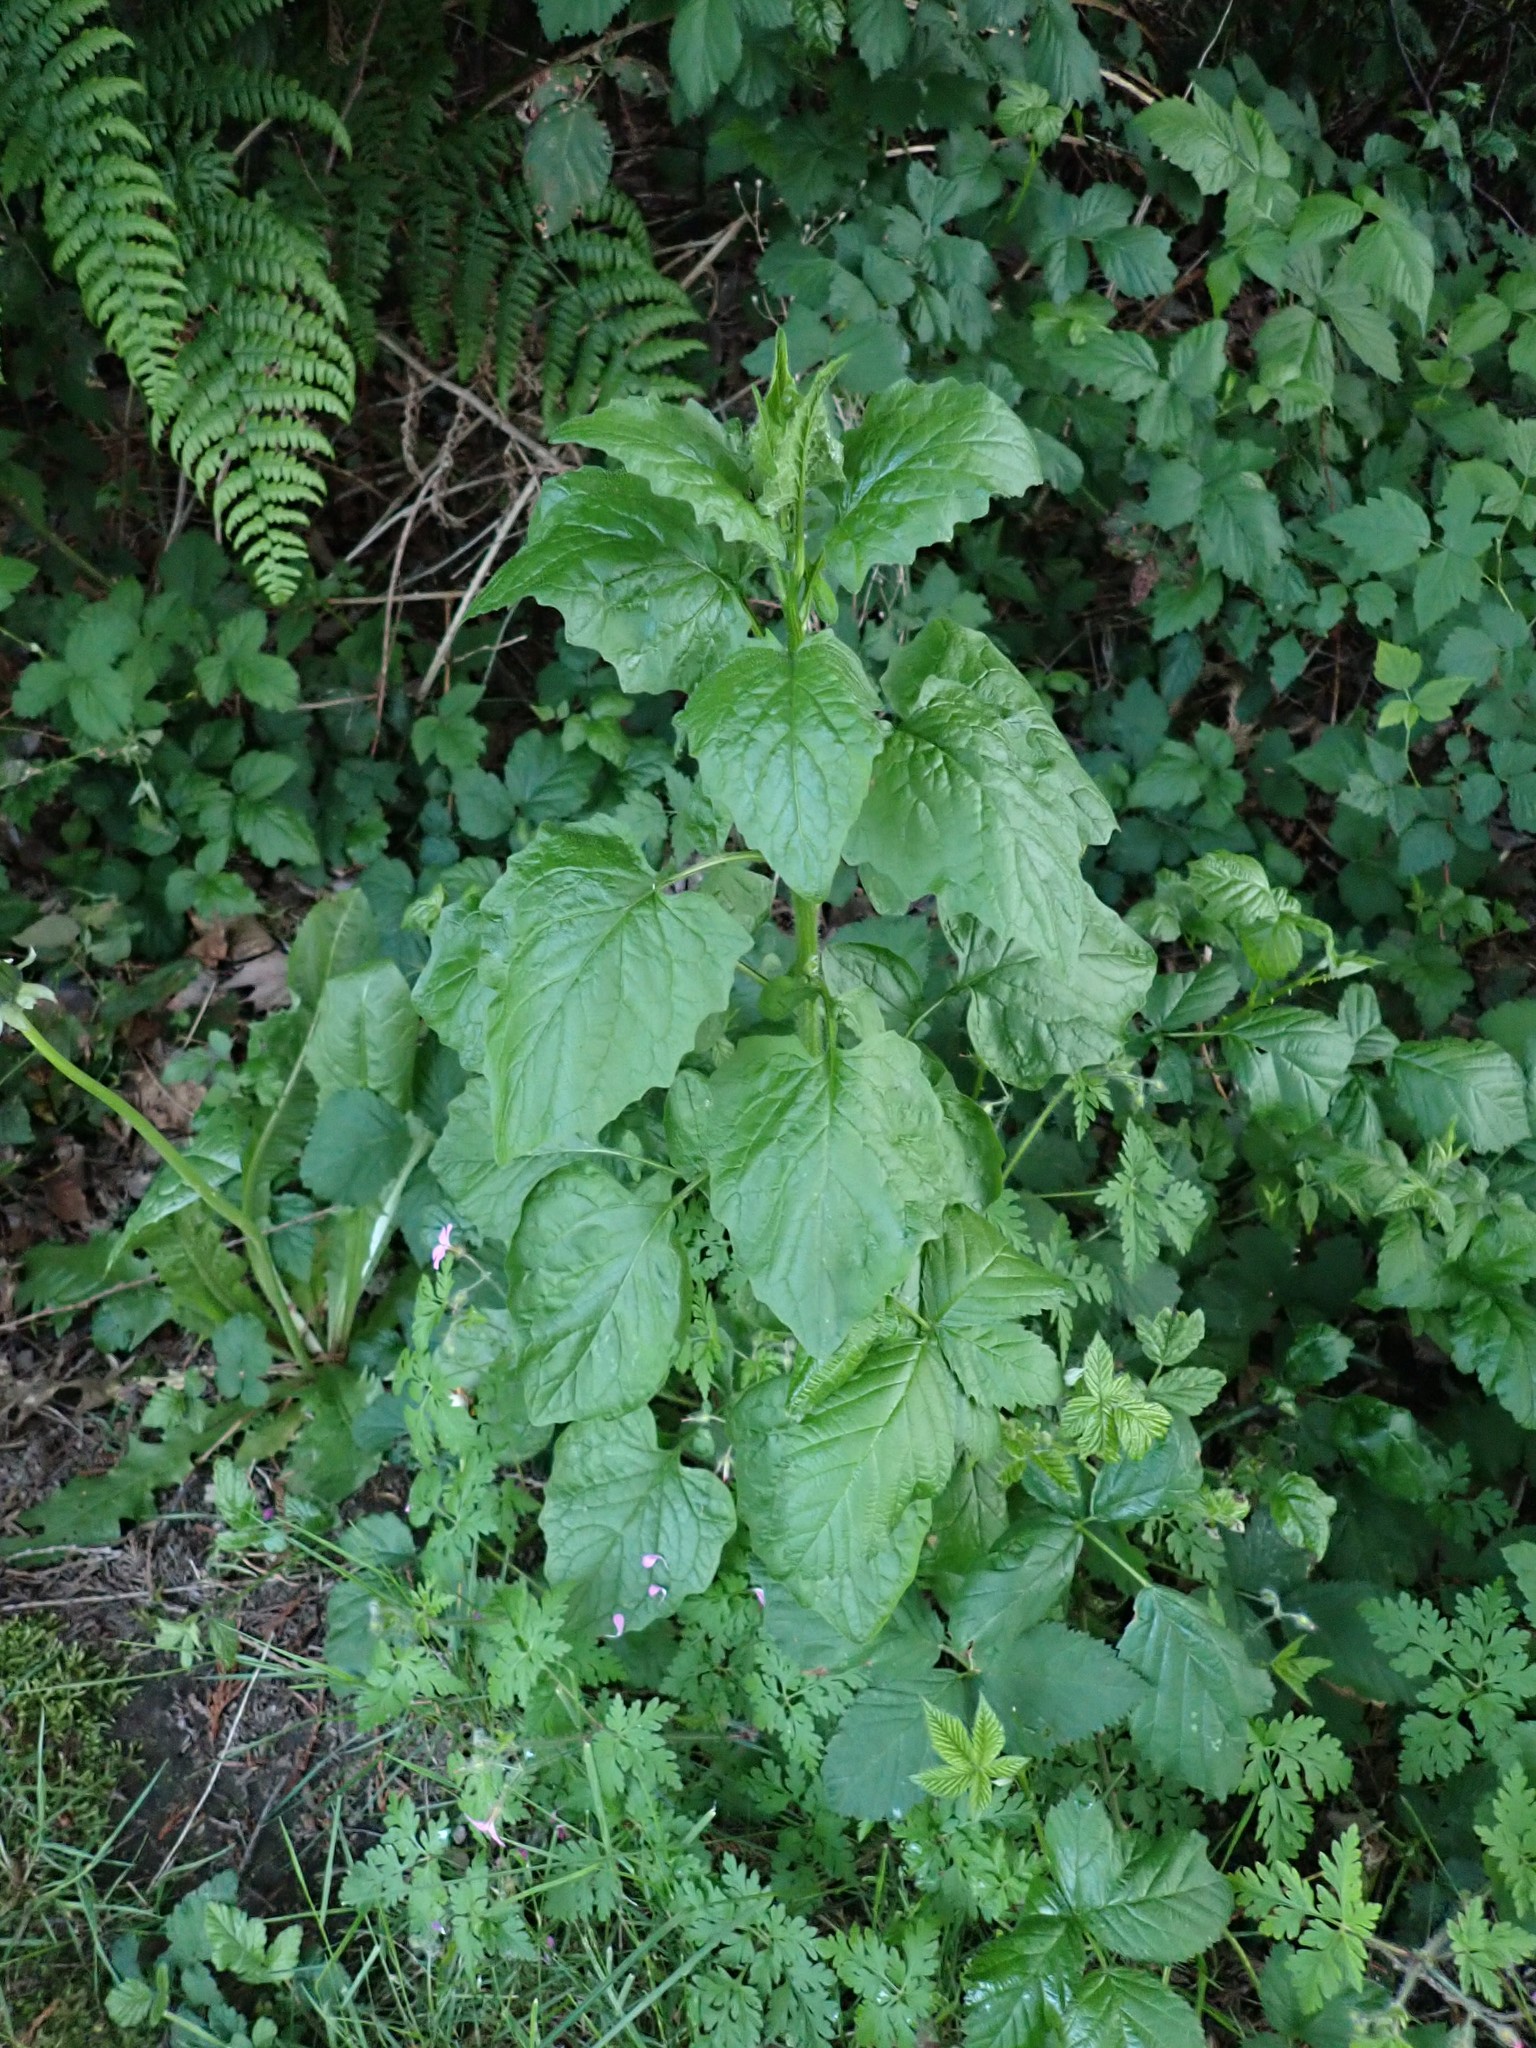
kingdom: Plantae
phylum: Tracheophyta
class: Magnoliopsida
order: Asterales
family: Asteraceae
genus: Lapsana
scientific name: Lapsana communis
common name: Nipplewort
